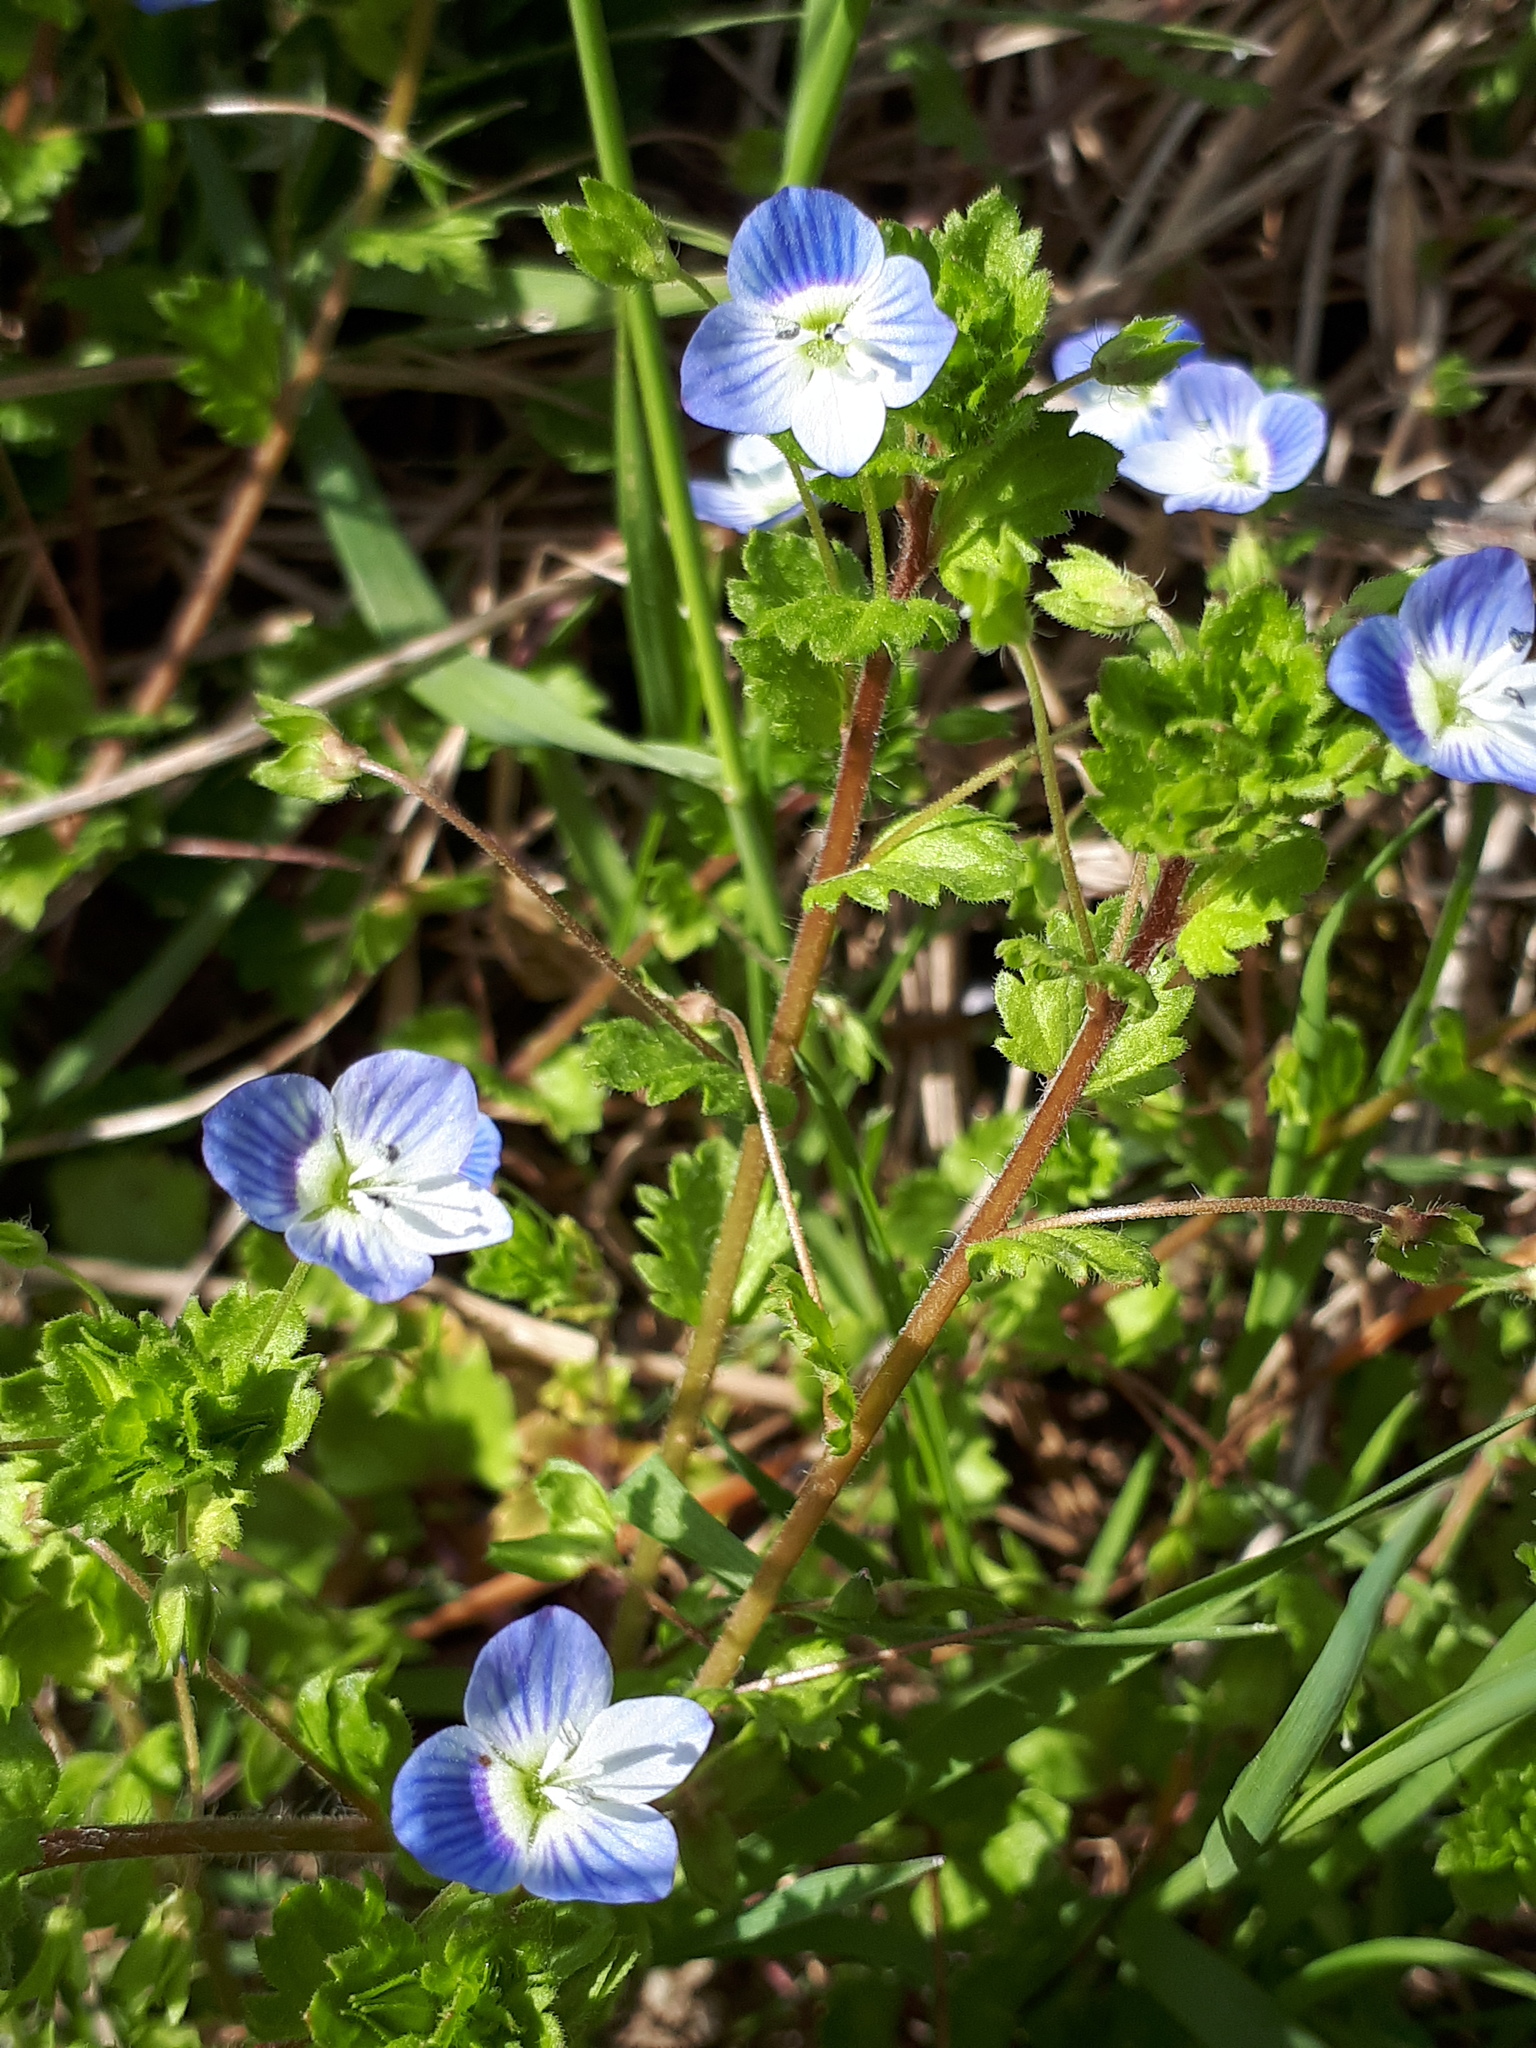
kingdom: Plantae
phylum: Tracheophyta
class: Magnoliopsida
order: Lamiales
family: Plantaginaceae
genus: Veronica
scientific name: Veronica persica
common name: Common field-speedwell
